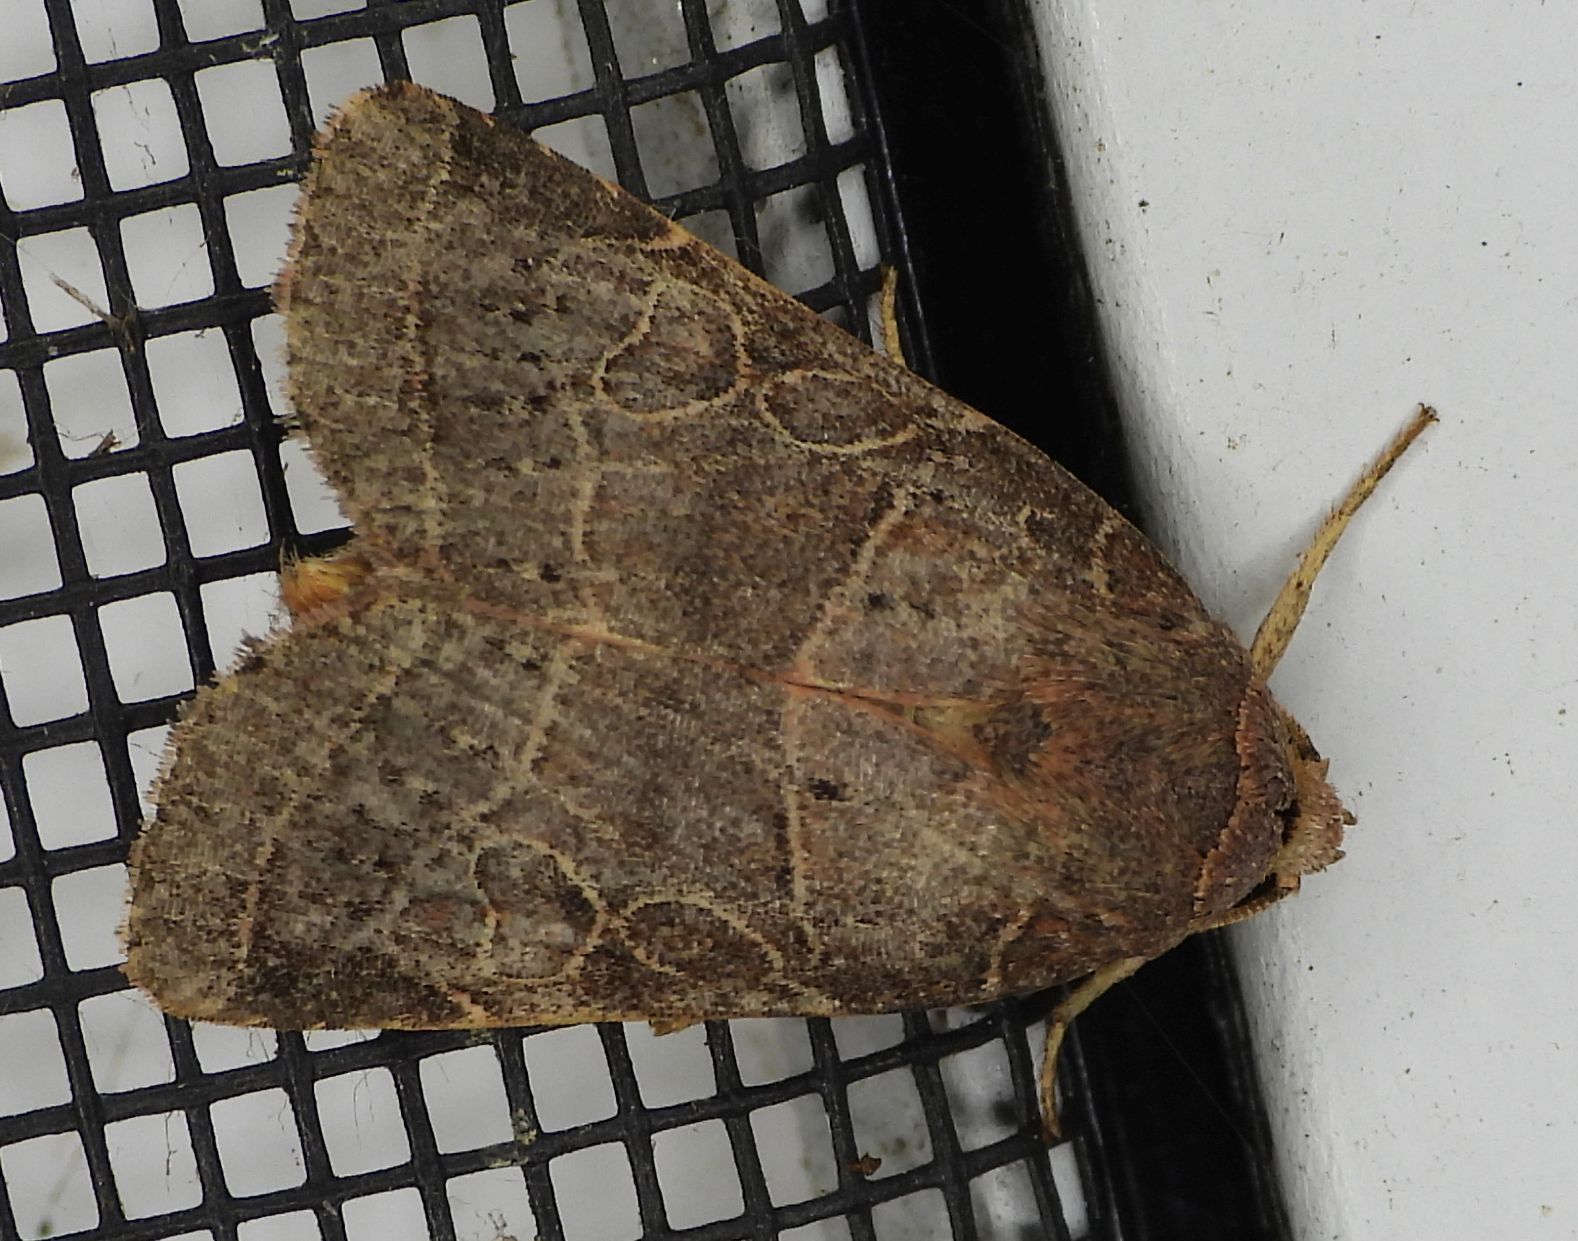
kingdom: Animalia
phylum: Arthropoda
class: Insecta
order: Lepidoptera
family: Noctuidae
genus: Orthodes
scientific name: Orthodes majuscula
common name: Rustic quaker
